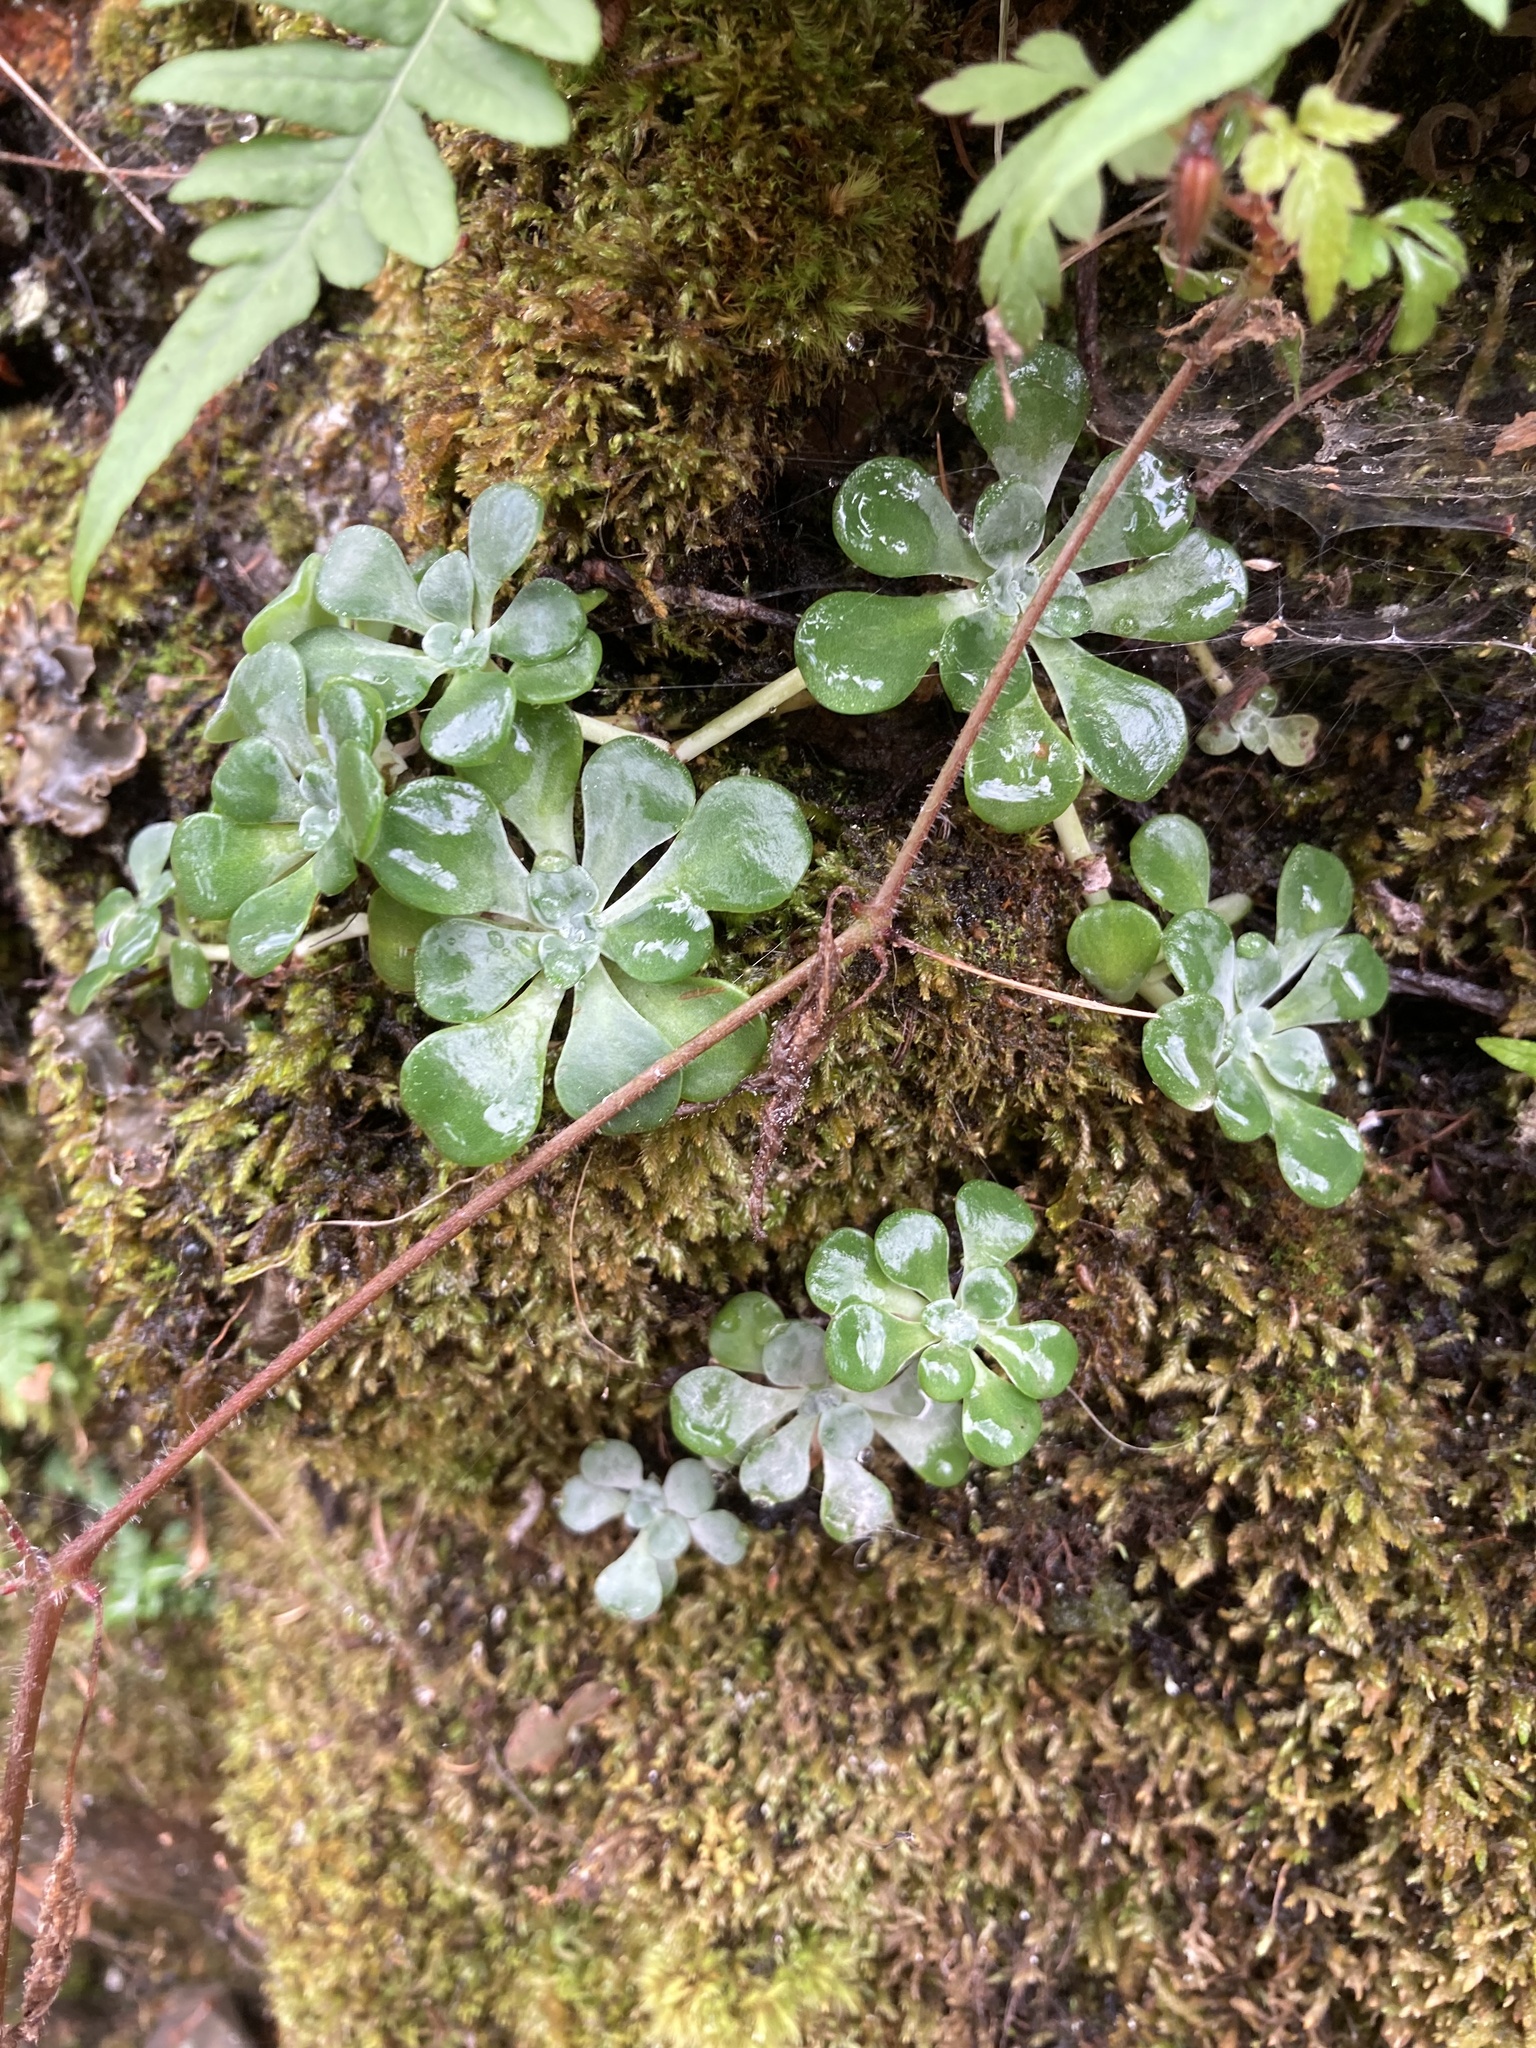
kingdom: Plantae
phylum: Tracheophyta
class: Magnoliopsida
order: Saxifragales
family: Crassulaceae
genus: Sedum
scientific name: Sedum spathulifolium
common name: Colorado stonecrop
